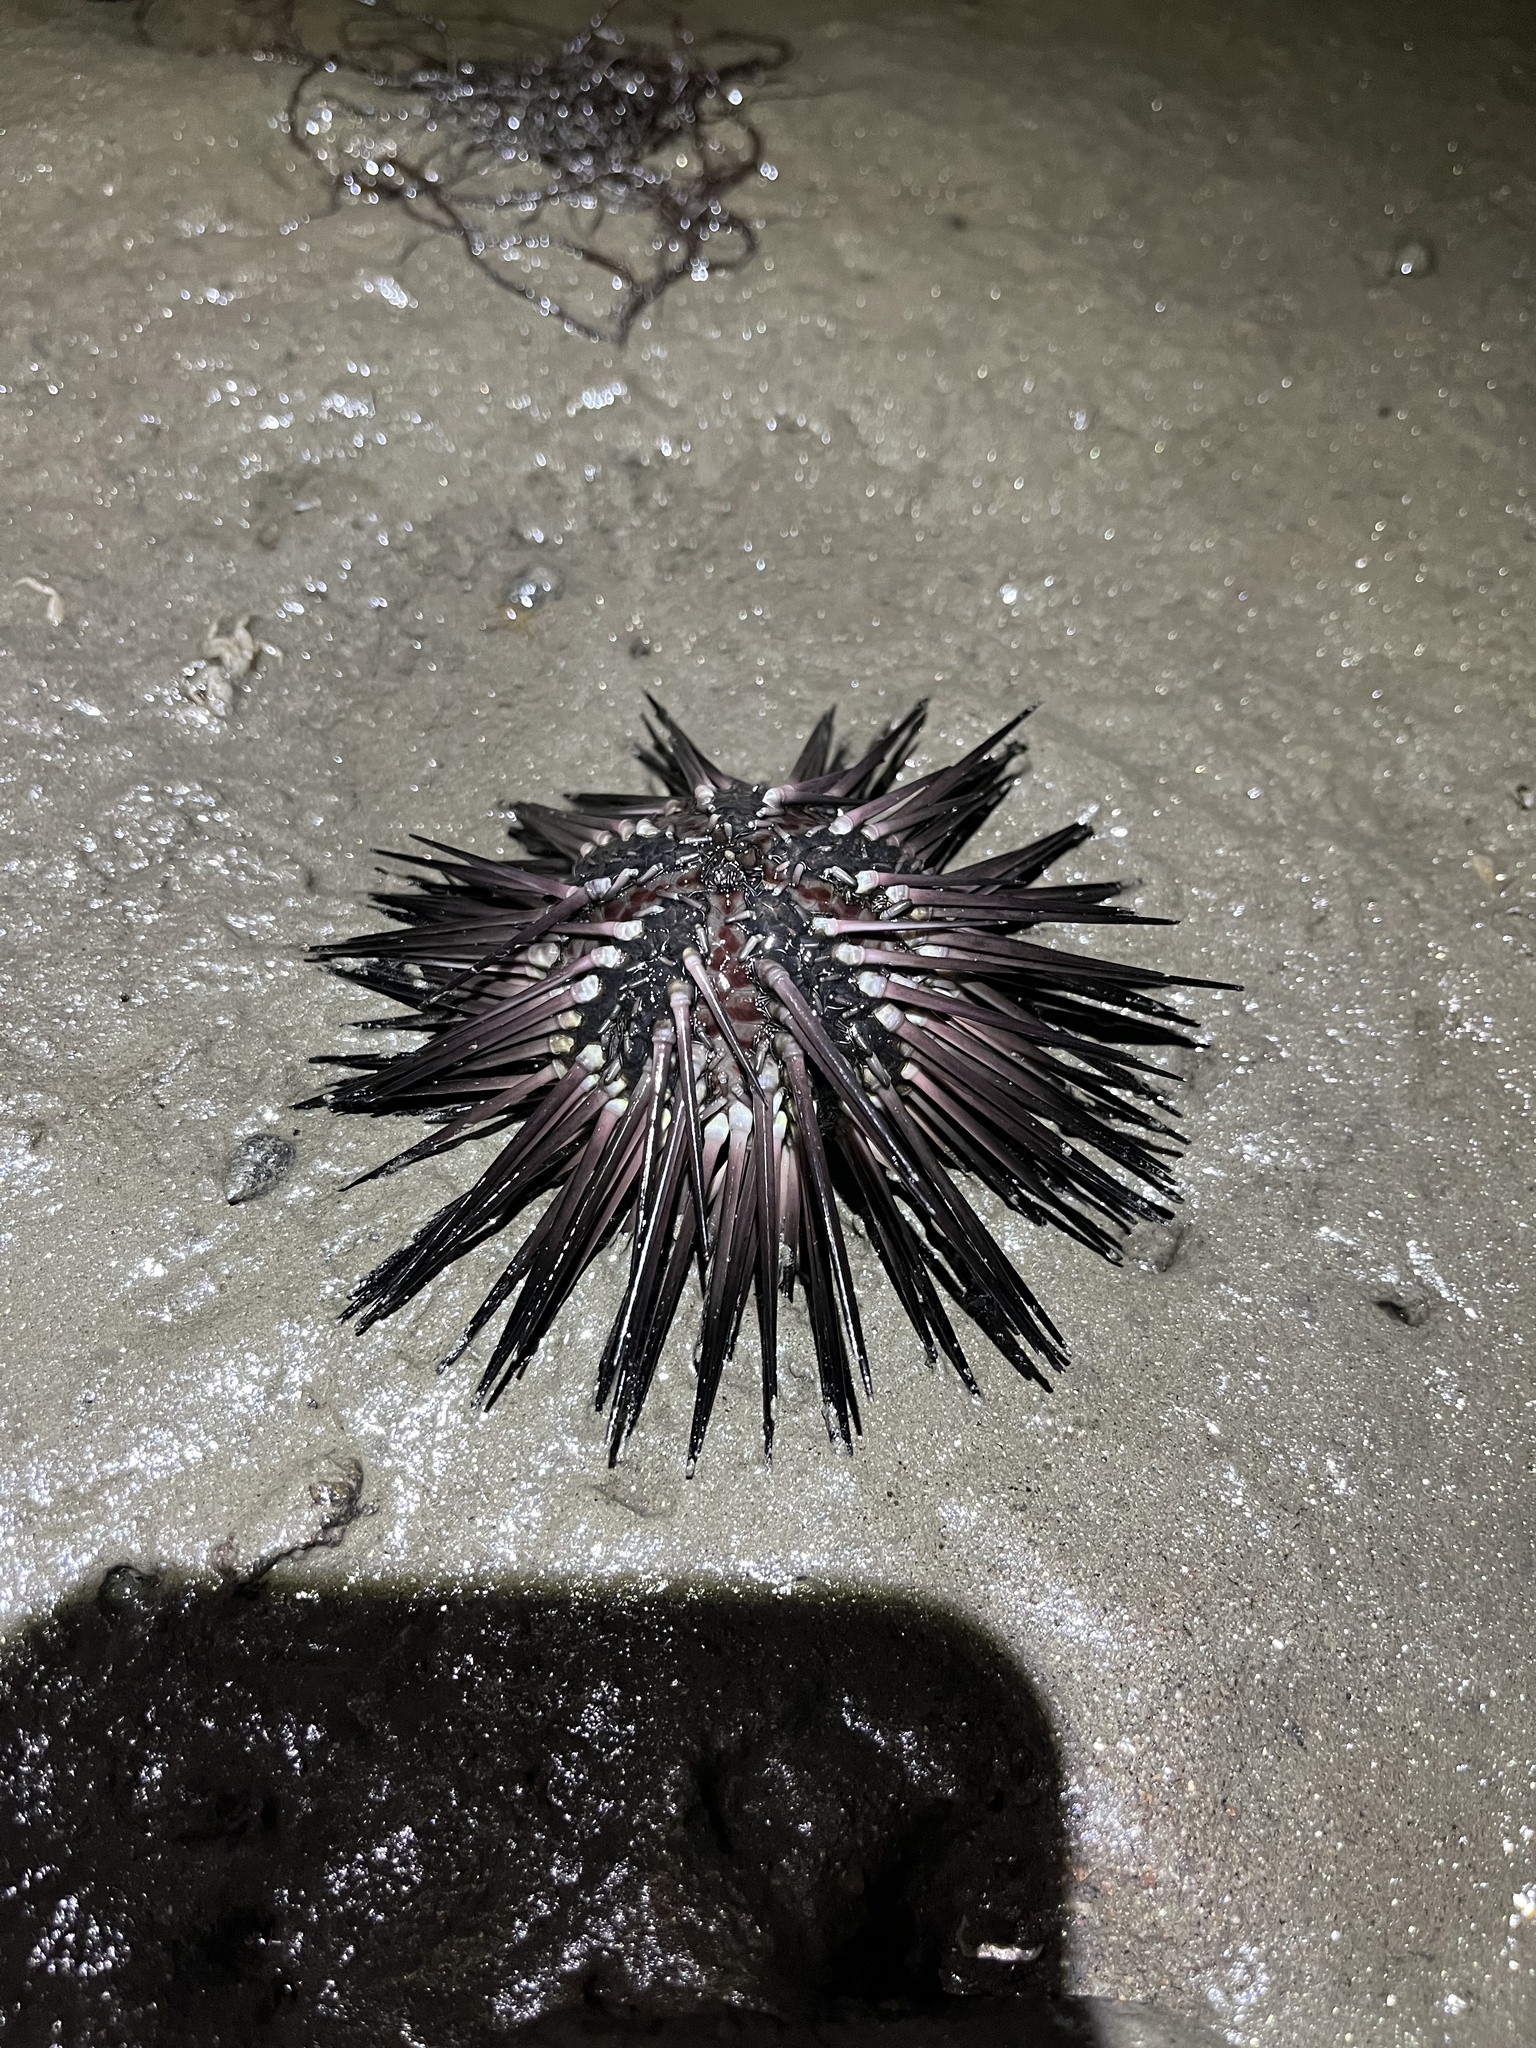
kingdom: Animalia
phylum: Echinodermata
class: Echinoidea
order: Arbacioida
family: Arbaciidae
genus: Arbacia
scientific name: Arbacia stellata
